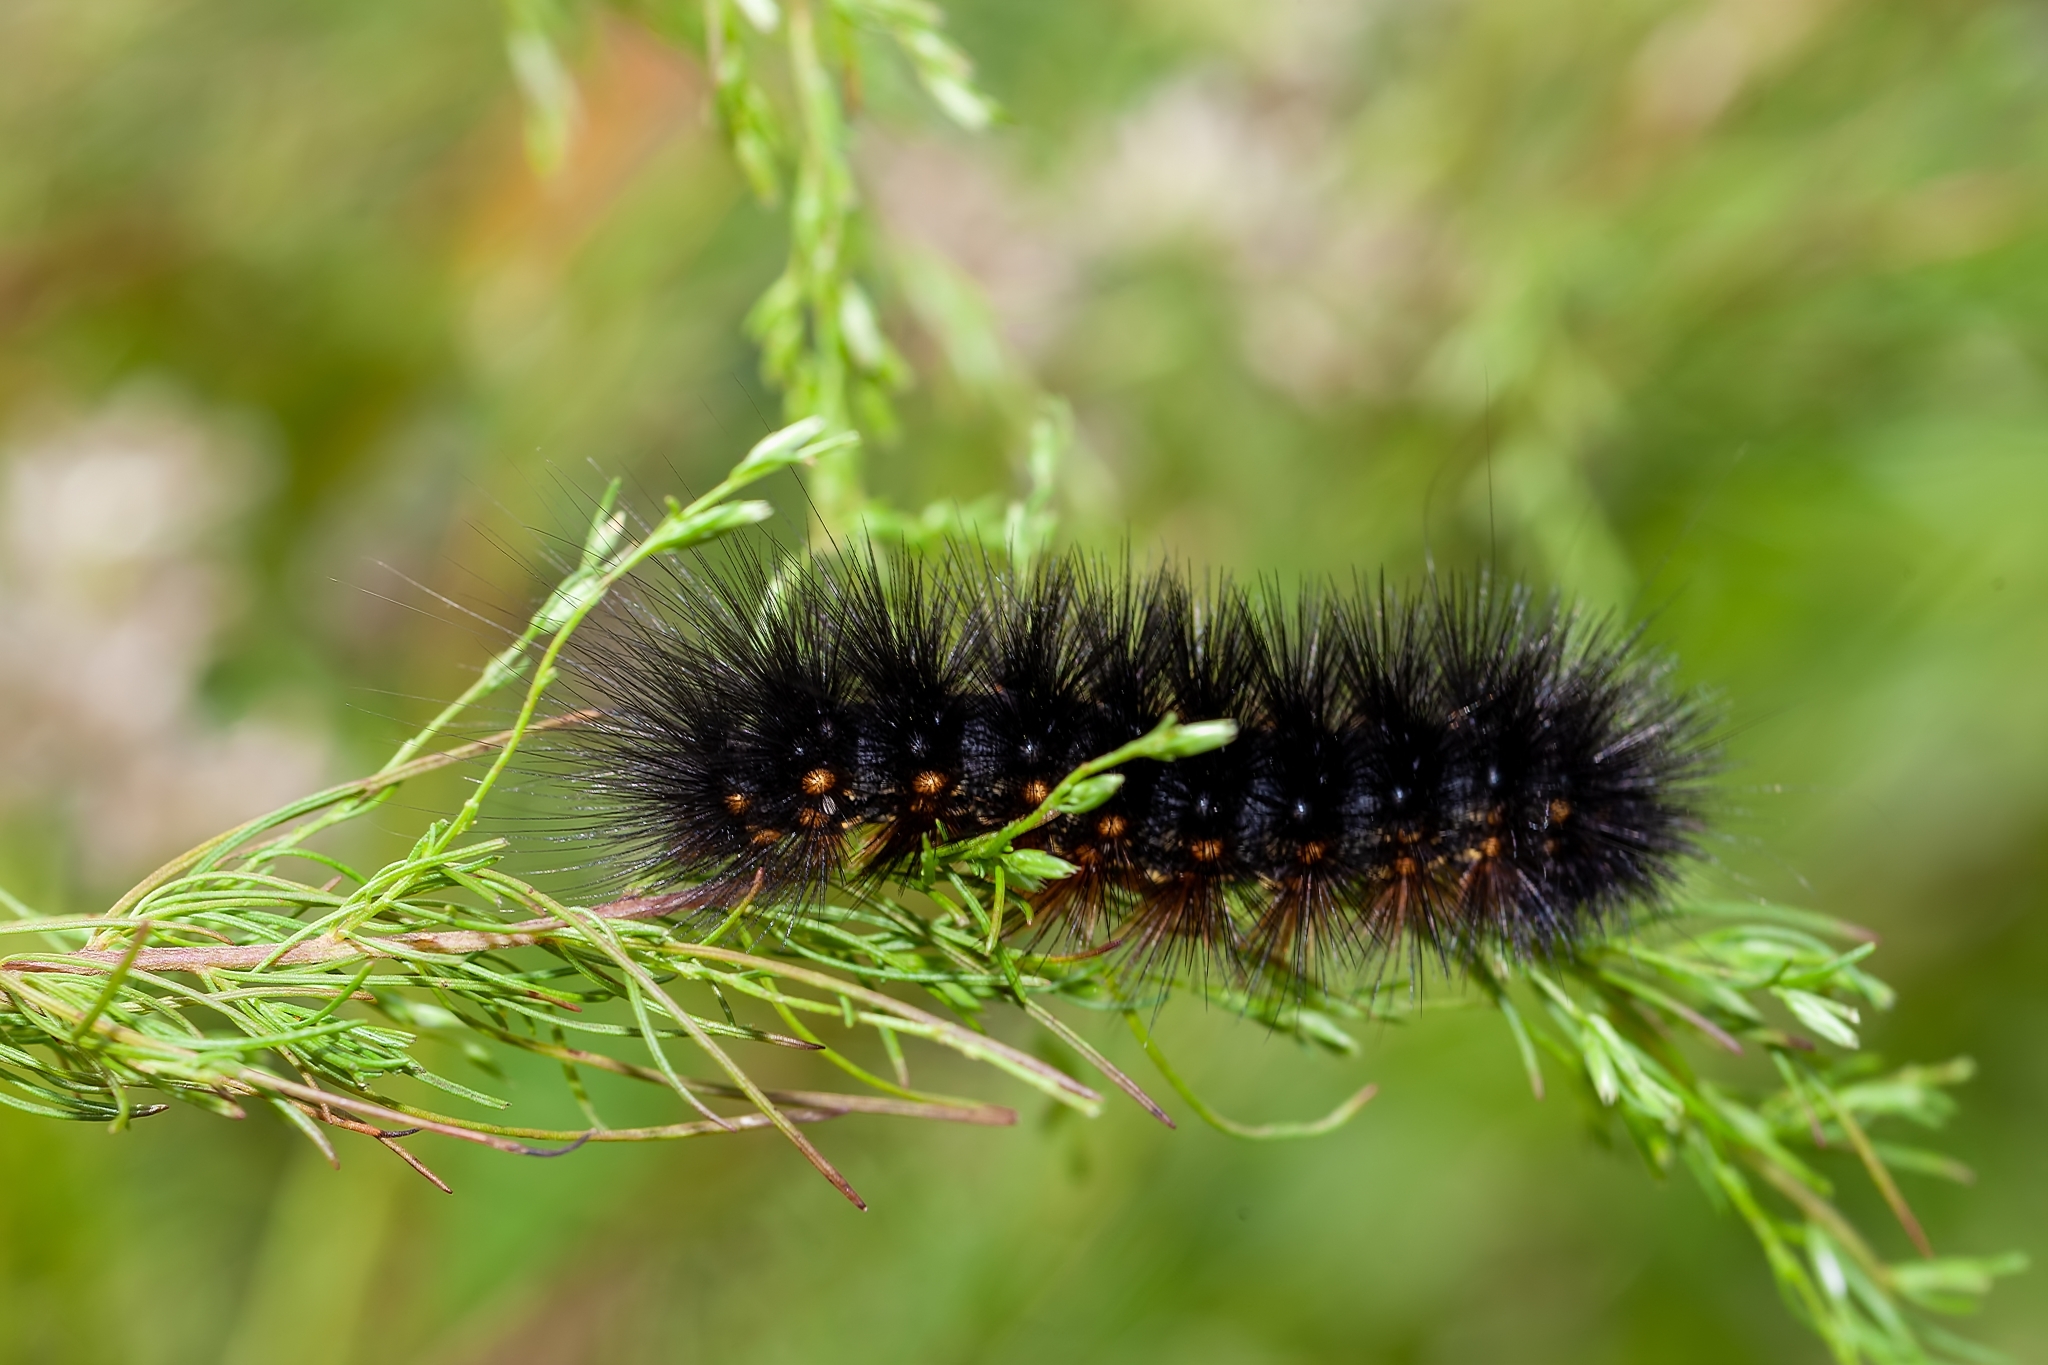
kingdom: Animalia
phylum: Arthropoda
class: Insecta
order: Lepidoptera
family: Erebidae
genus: Estigmene
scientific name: Estigmene acrea
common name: Salt marsh moth
